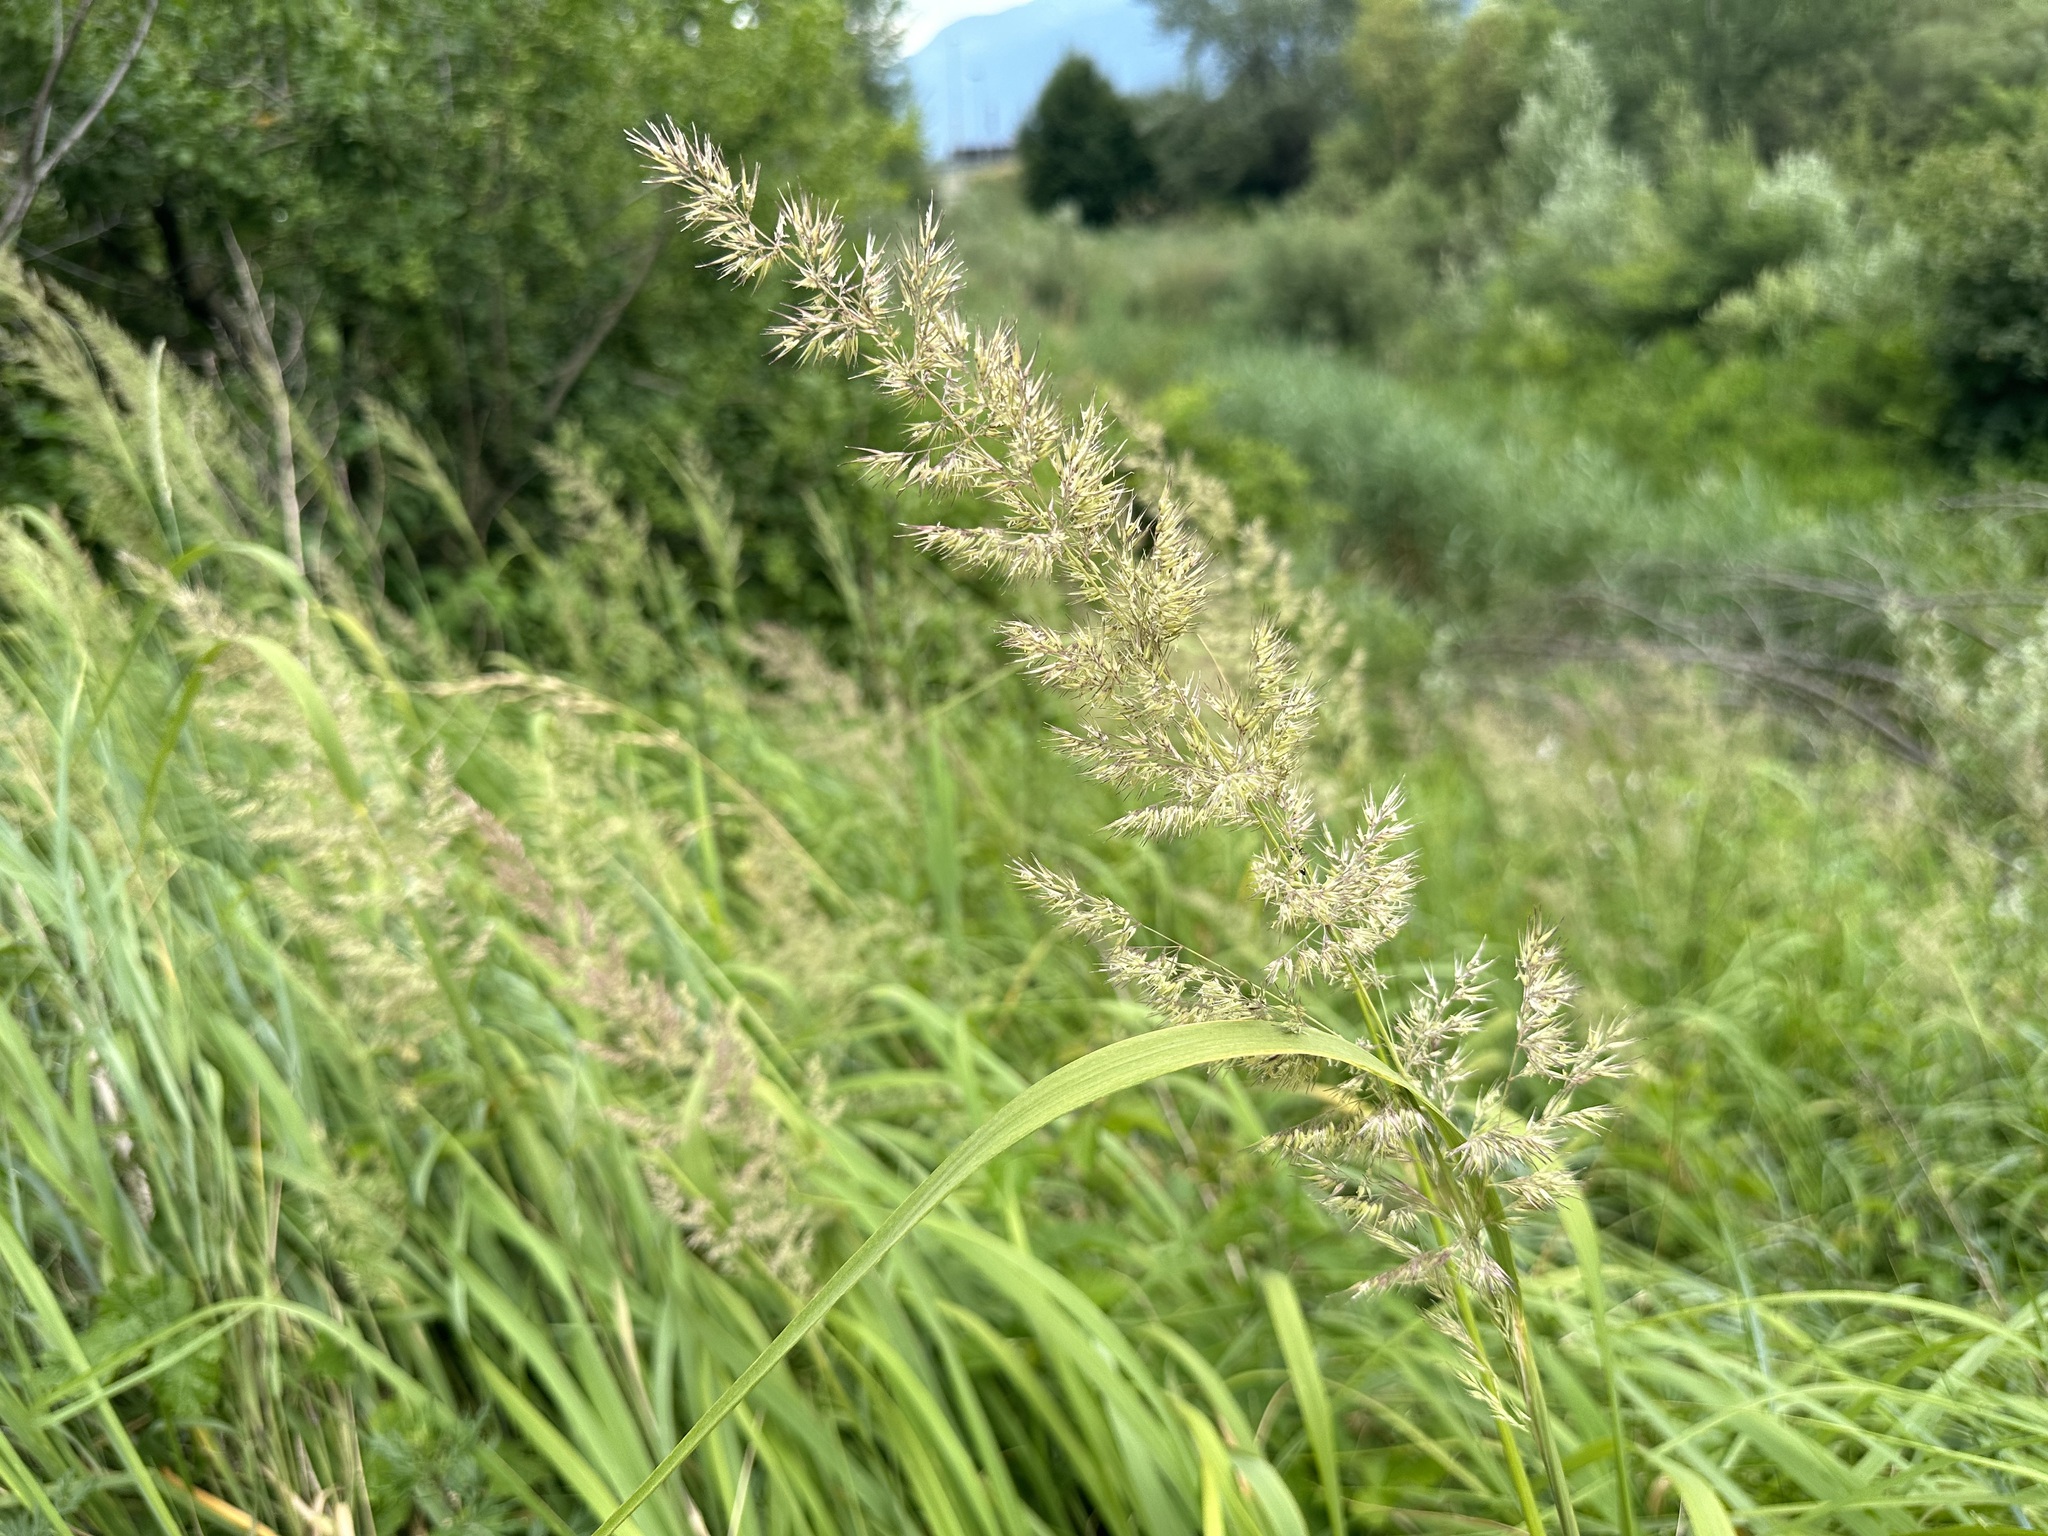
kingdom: Plantae
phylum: Tracheophyta
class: Liliopsida
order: Poales
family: Poaceae
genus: Calamagrostis
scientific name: Calamagrostis epigejos
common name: Wood small-reed
